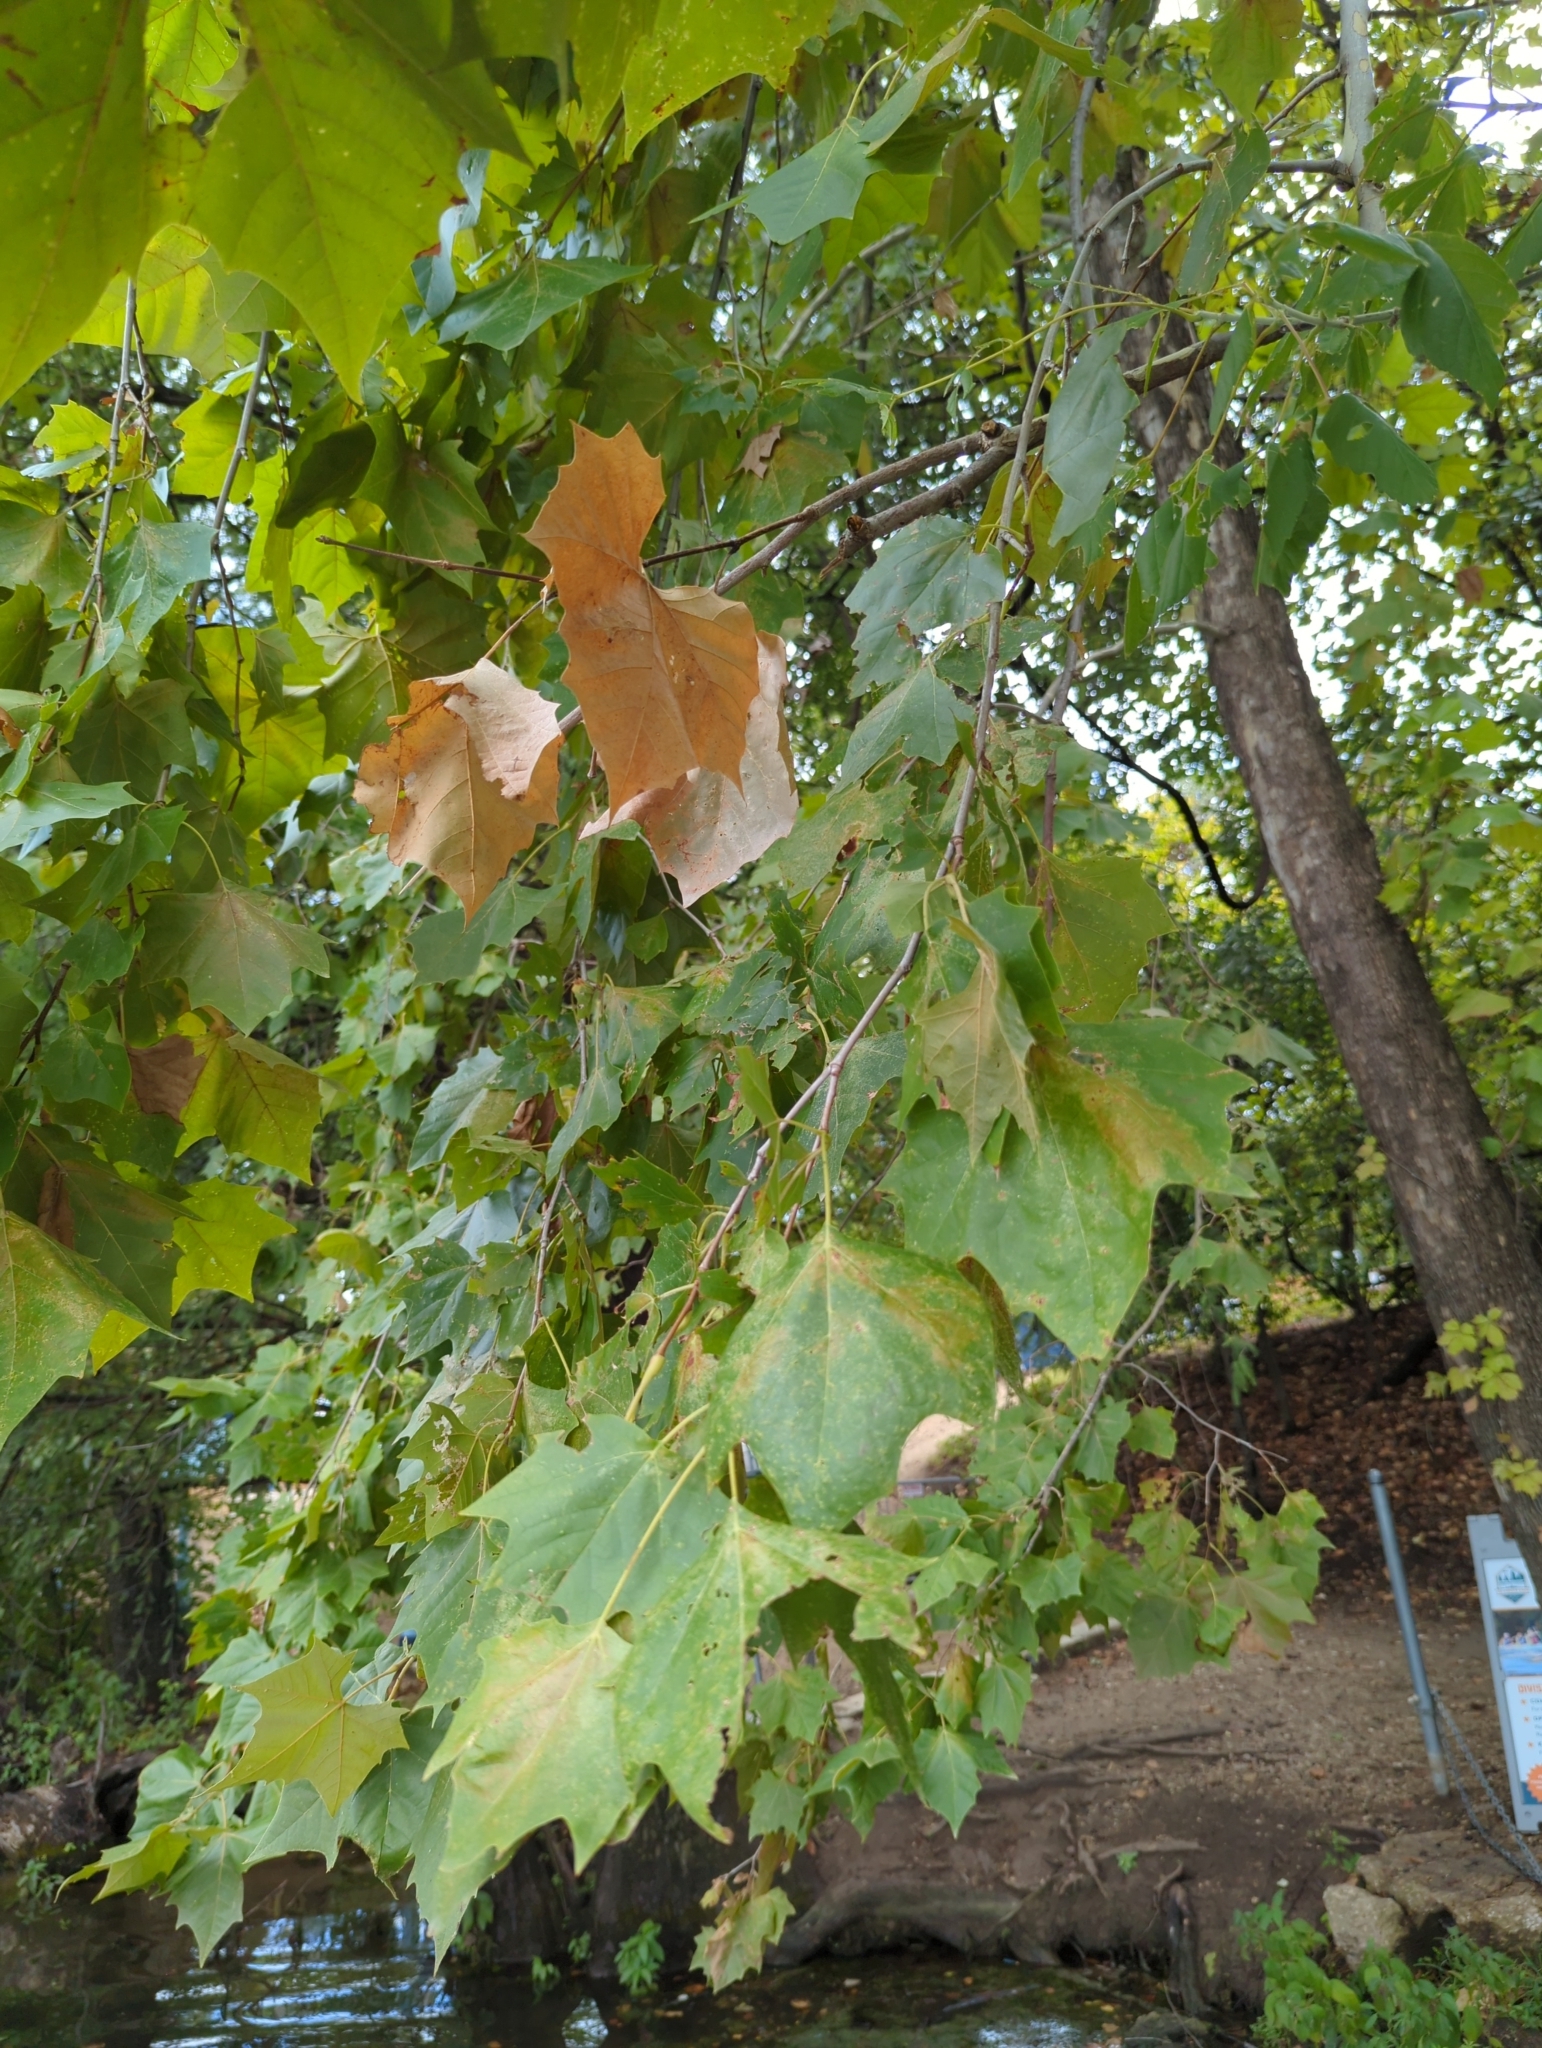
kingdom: Plantae
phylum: Tracheophyta
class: Magnoliopsida
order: Proteales
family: Platanaceae
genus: Platanus
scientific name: Platanus occidentalis
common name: American sycamore
